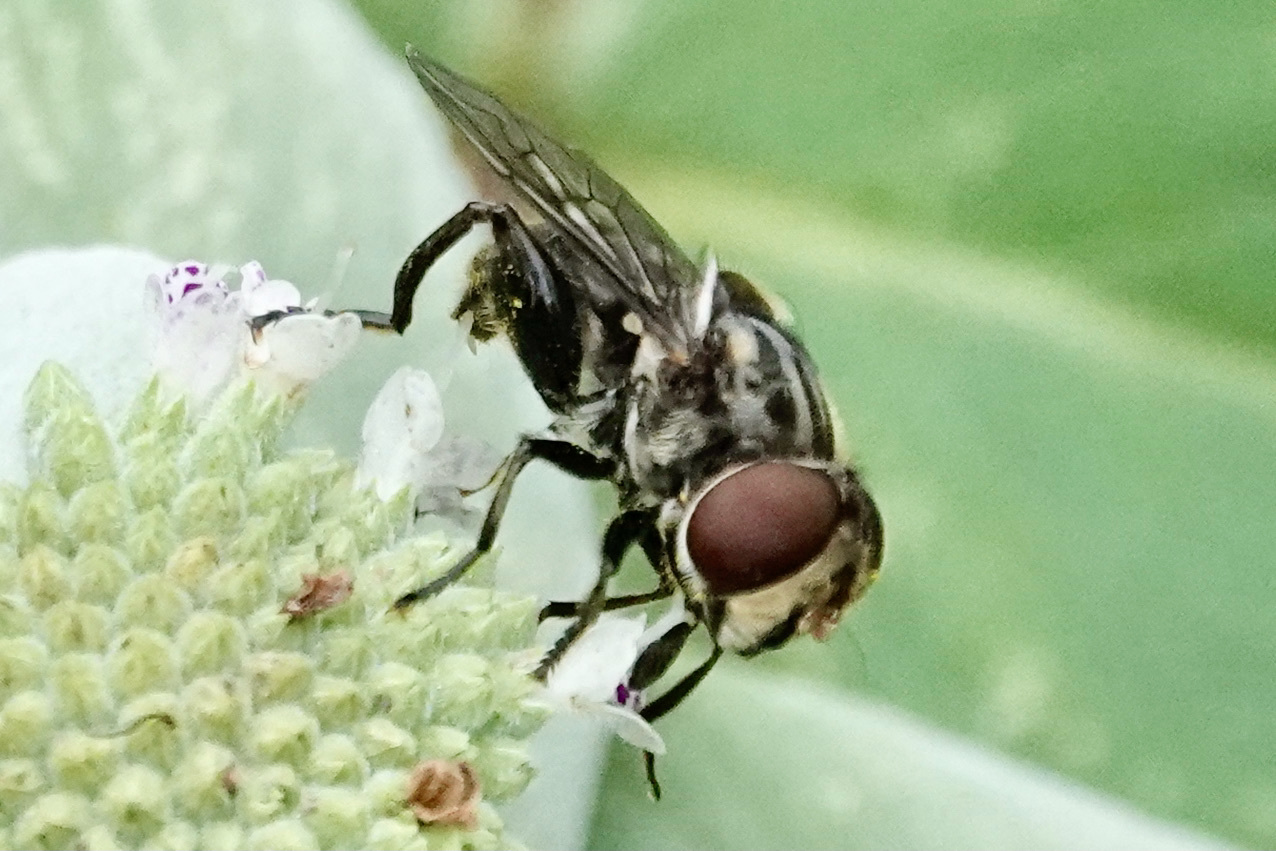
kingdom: Animalia
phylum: Arthropoda
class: Insecta
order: Diptera
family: Syrphidae
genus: Palpada
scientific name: Palpada furcata
